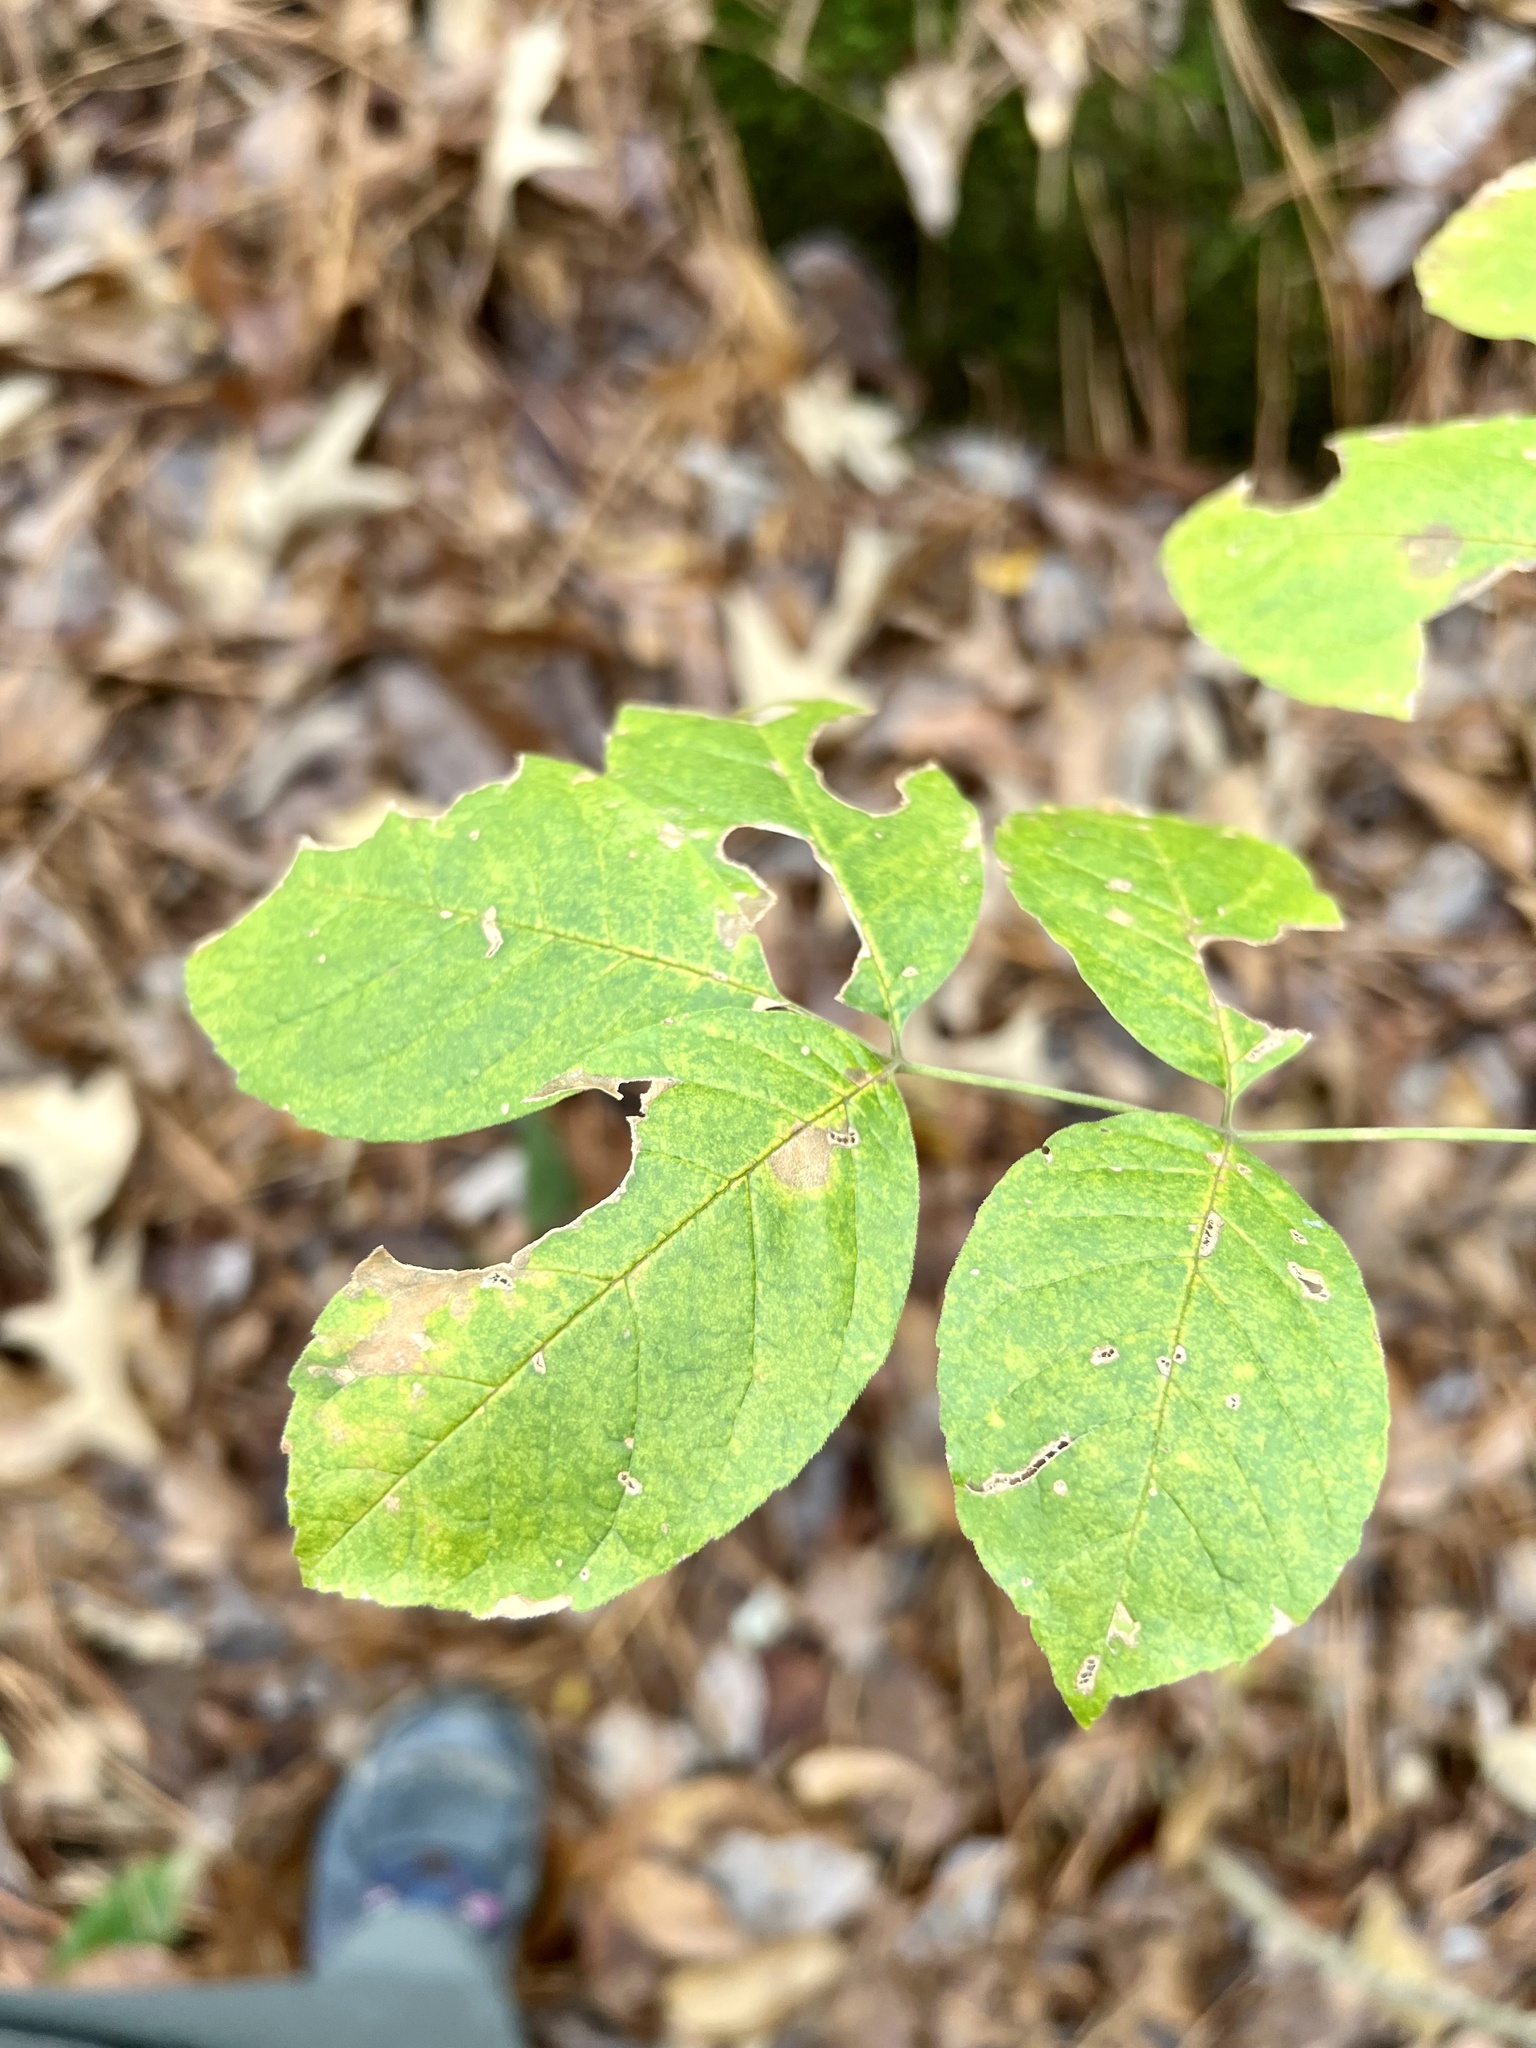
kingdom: Plantae
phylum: Tracheophyta
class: Magnoliopsida
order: Lamiales
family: Oleaceae
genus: Fraxinus
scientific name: Fraxinus americana
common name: White ash
